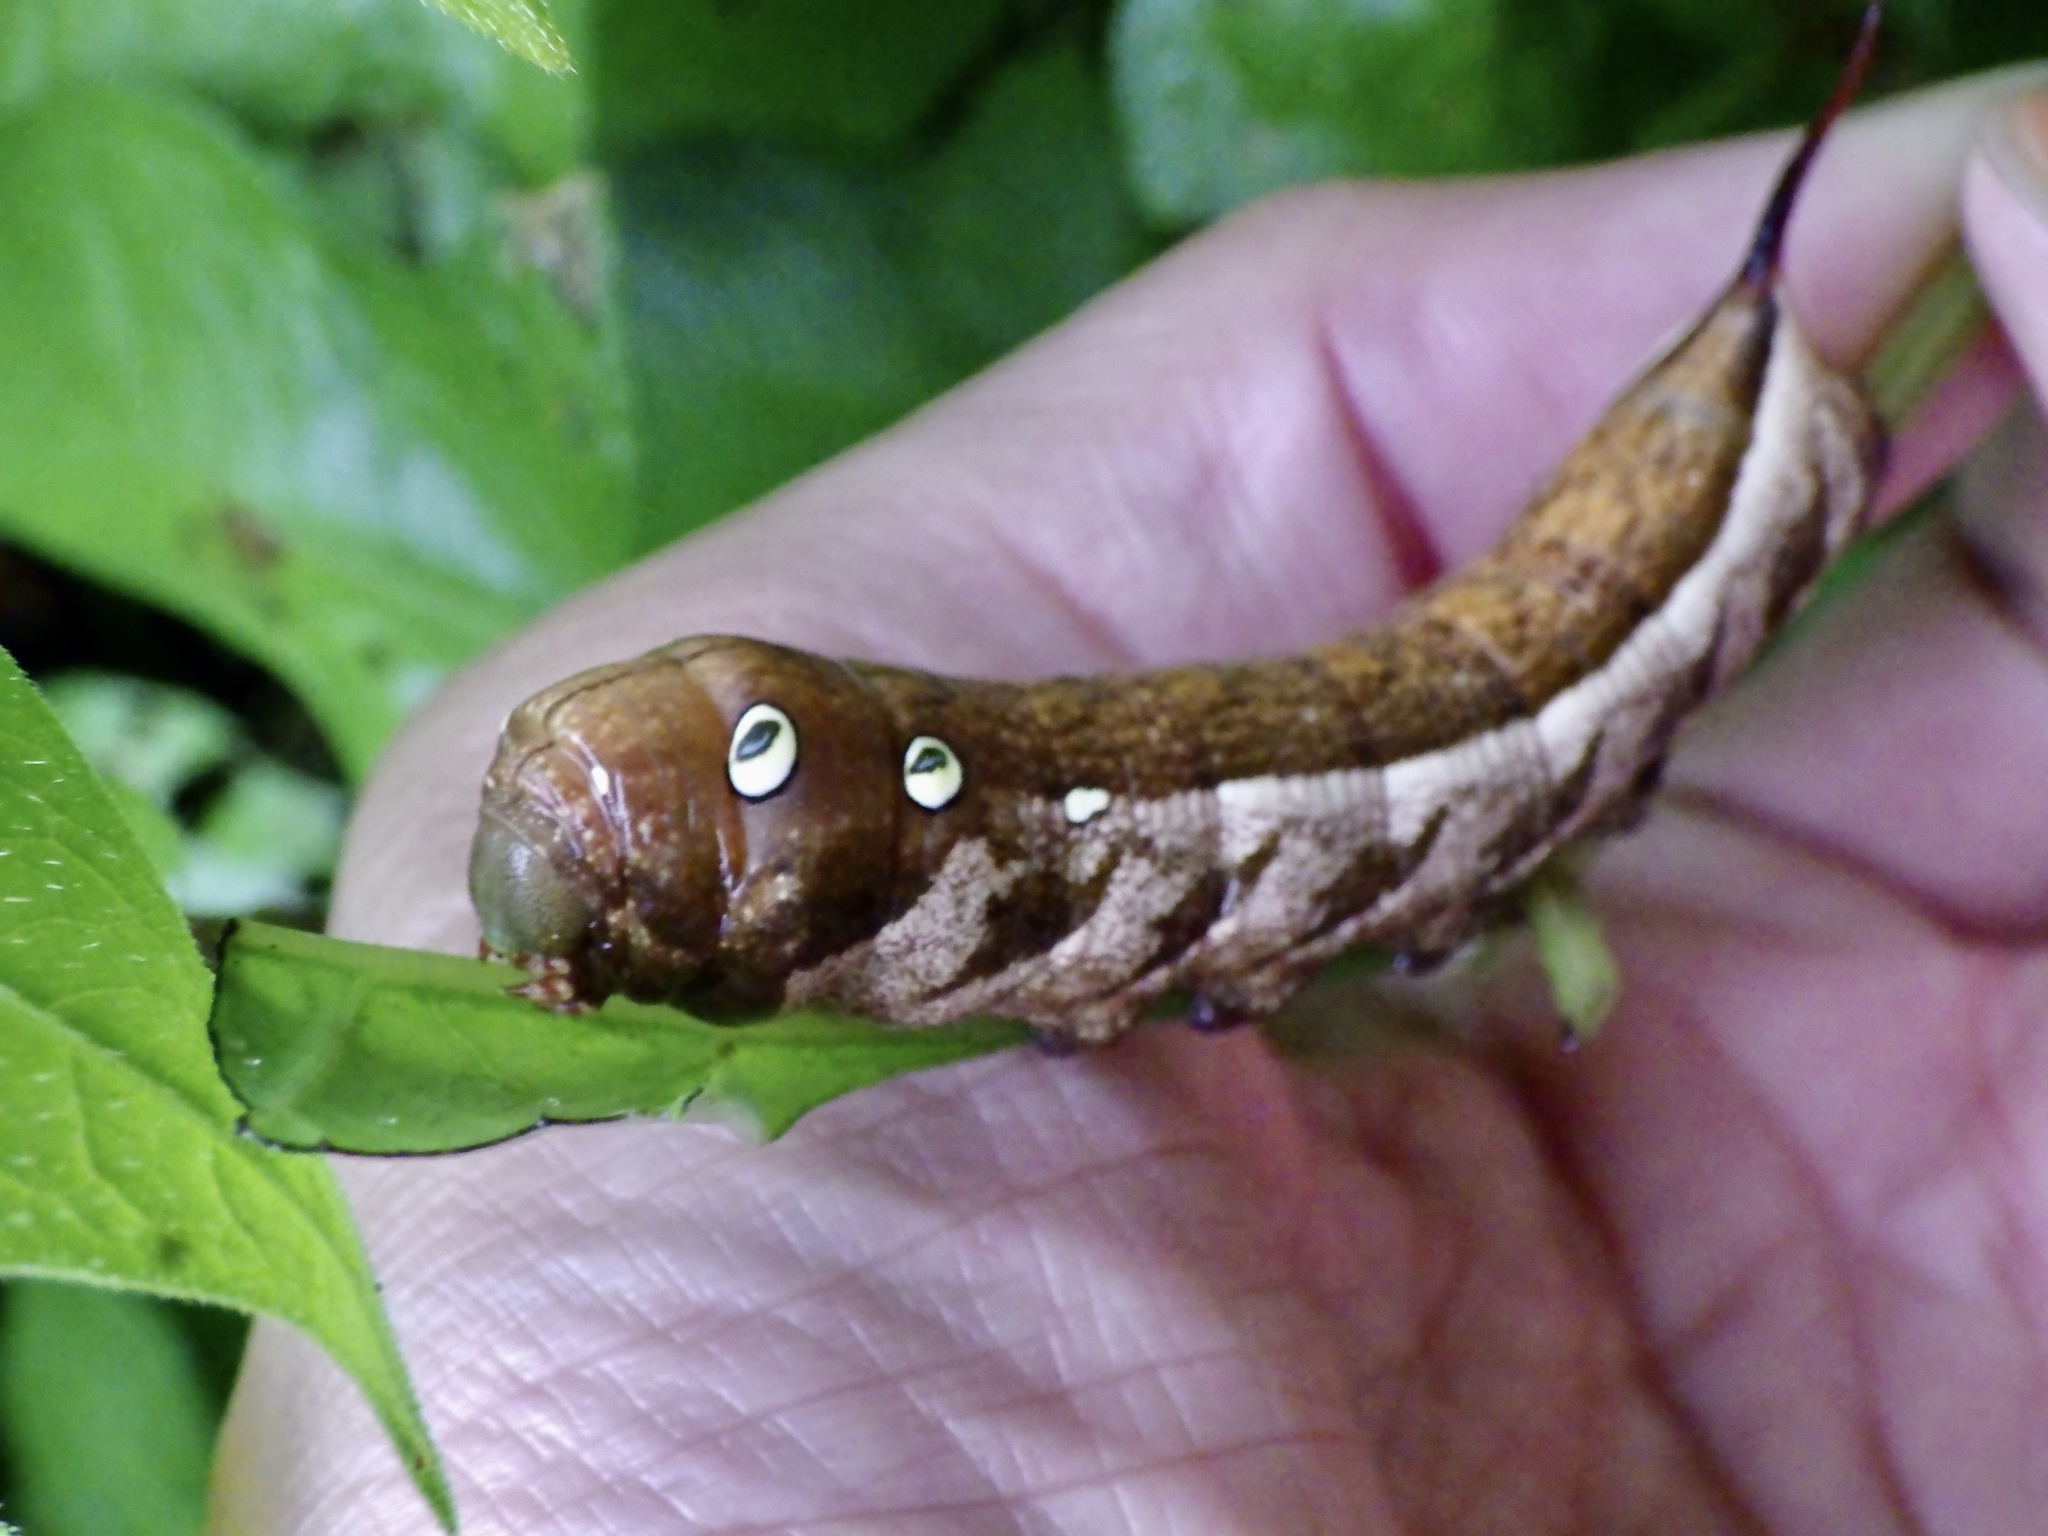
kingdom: Animalia
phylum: Arthropoda
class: Insecta
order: Lepidoptera
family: Sphingidae
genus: Theretra
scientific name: Theretra japonica
